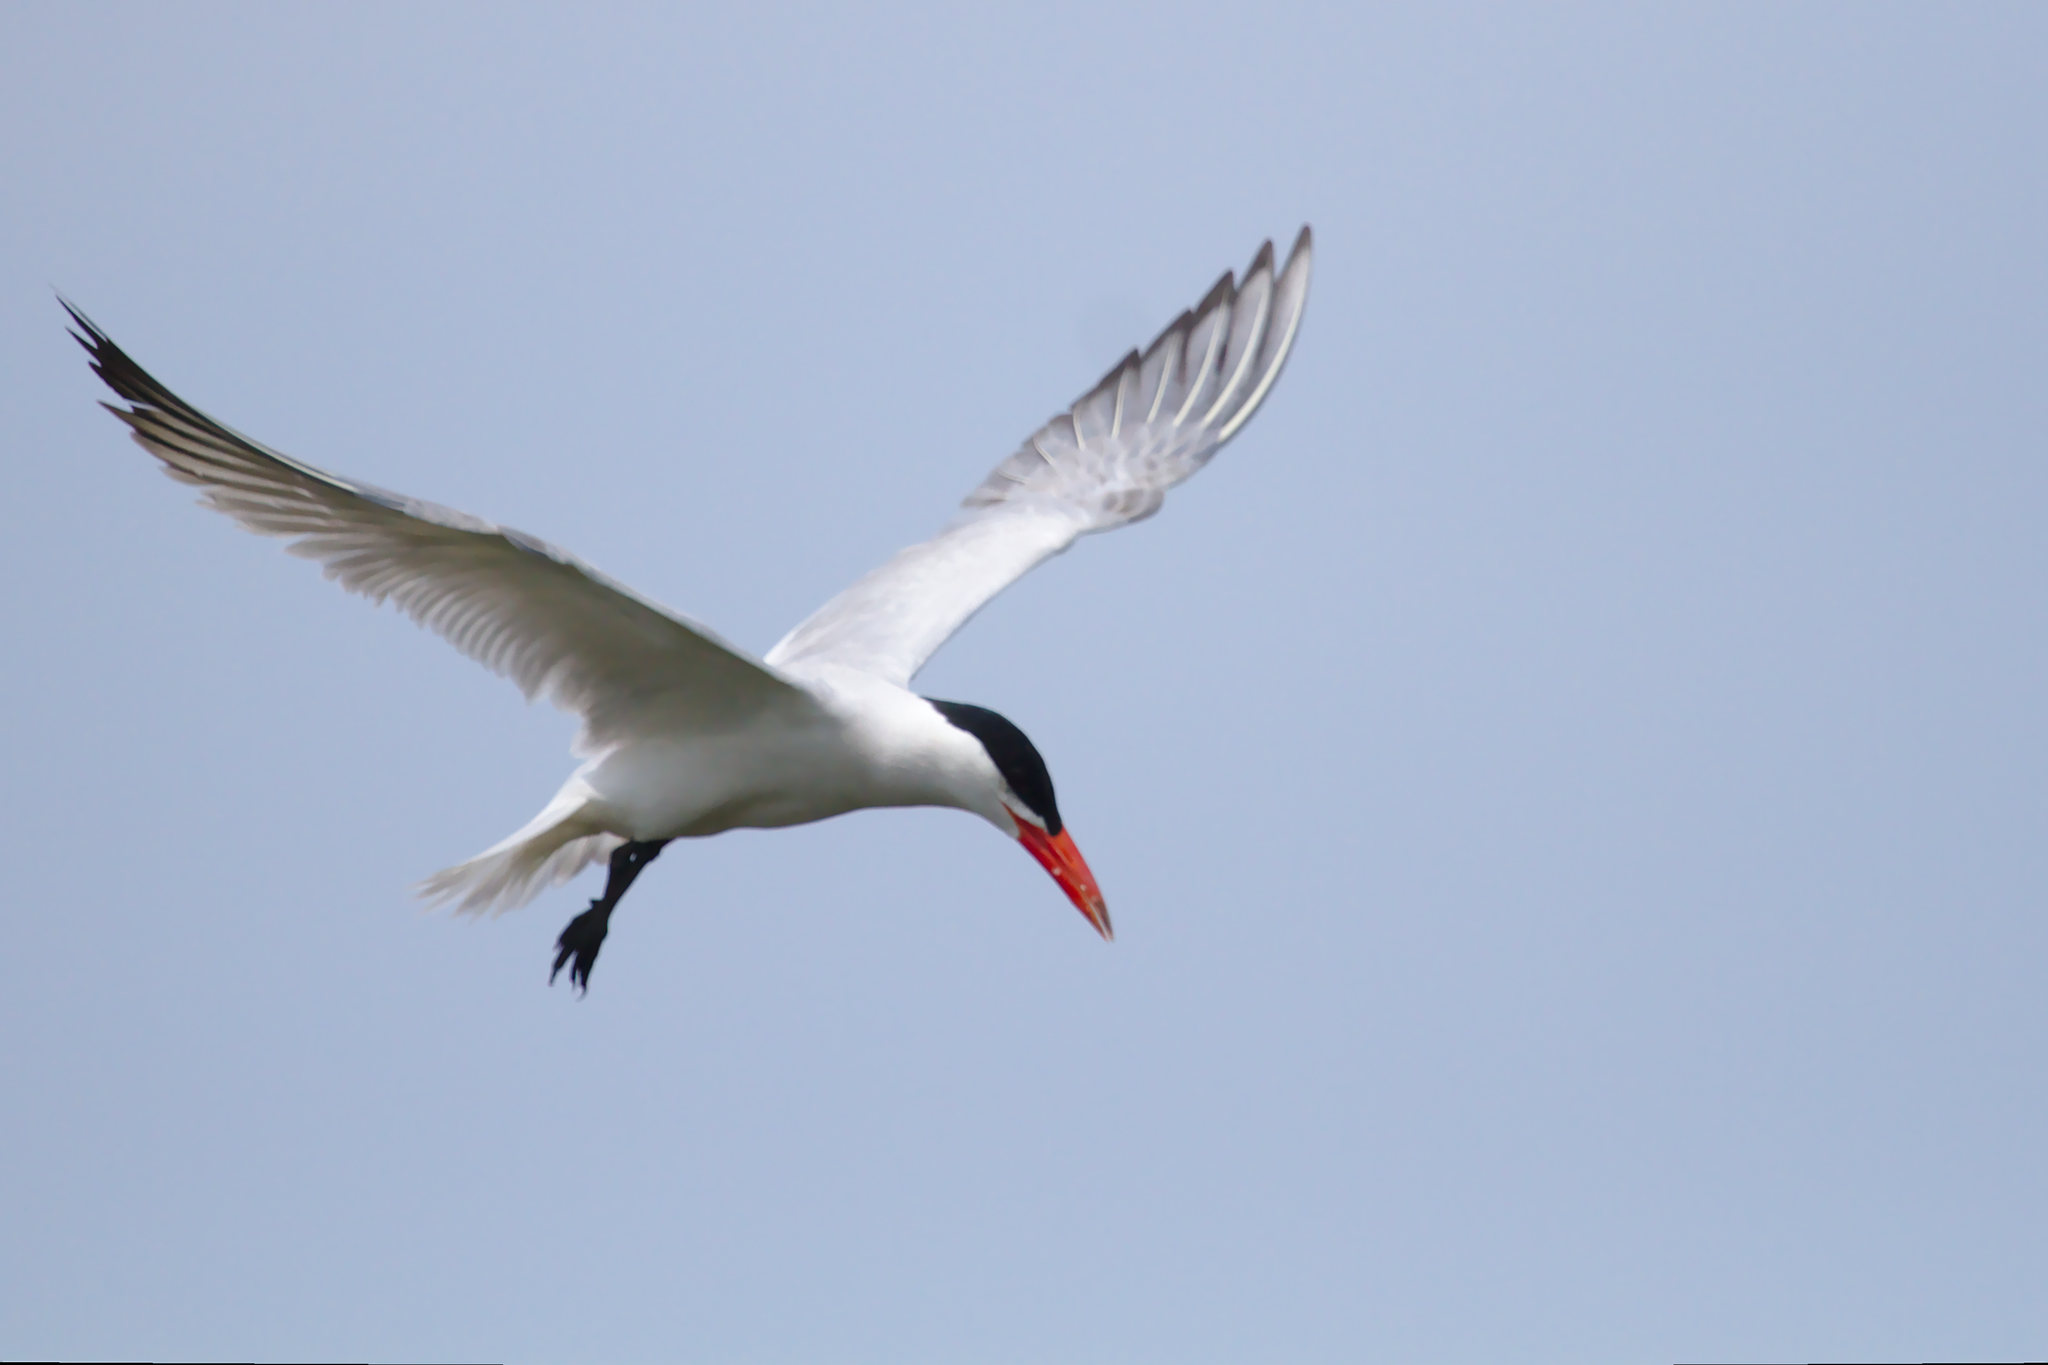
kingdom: Animalia
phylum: Chordata
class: Aves
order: Charadriiformes
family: Laridae
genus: Hydroprogne
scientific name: Hydroprogne caspia
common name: Caspian tern
